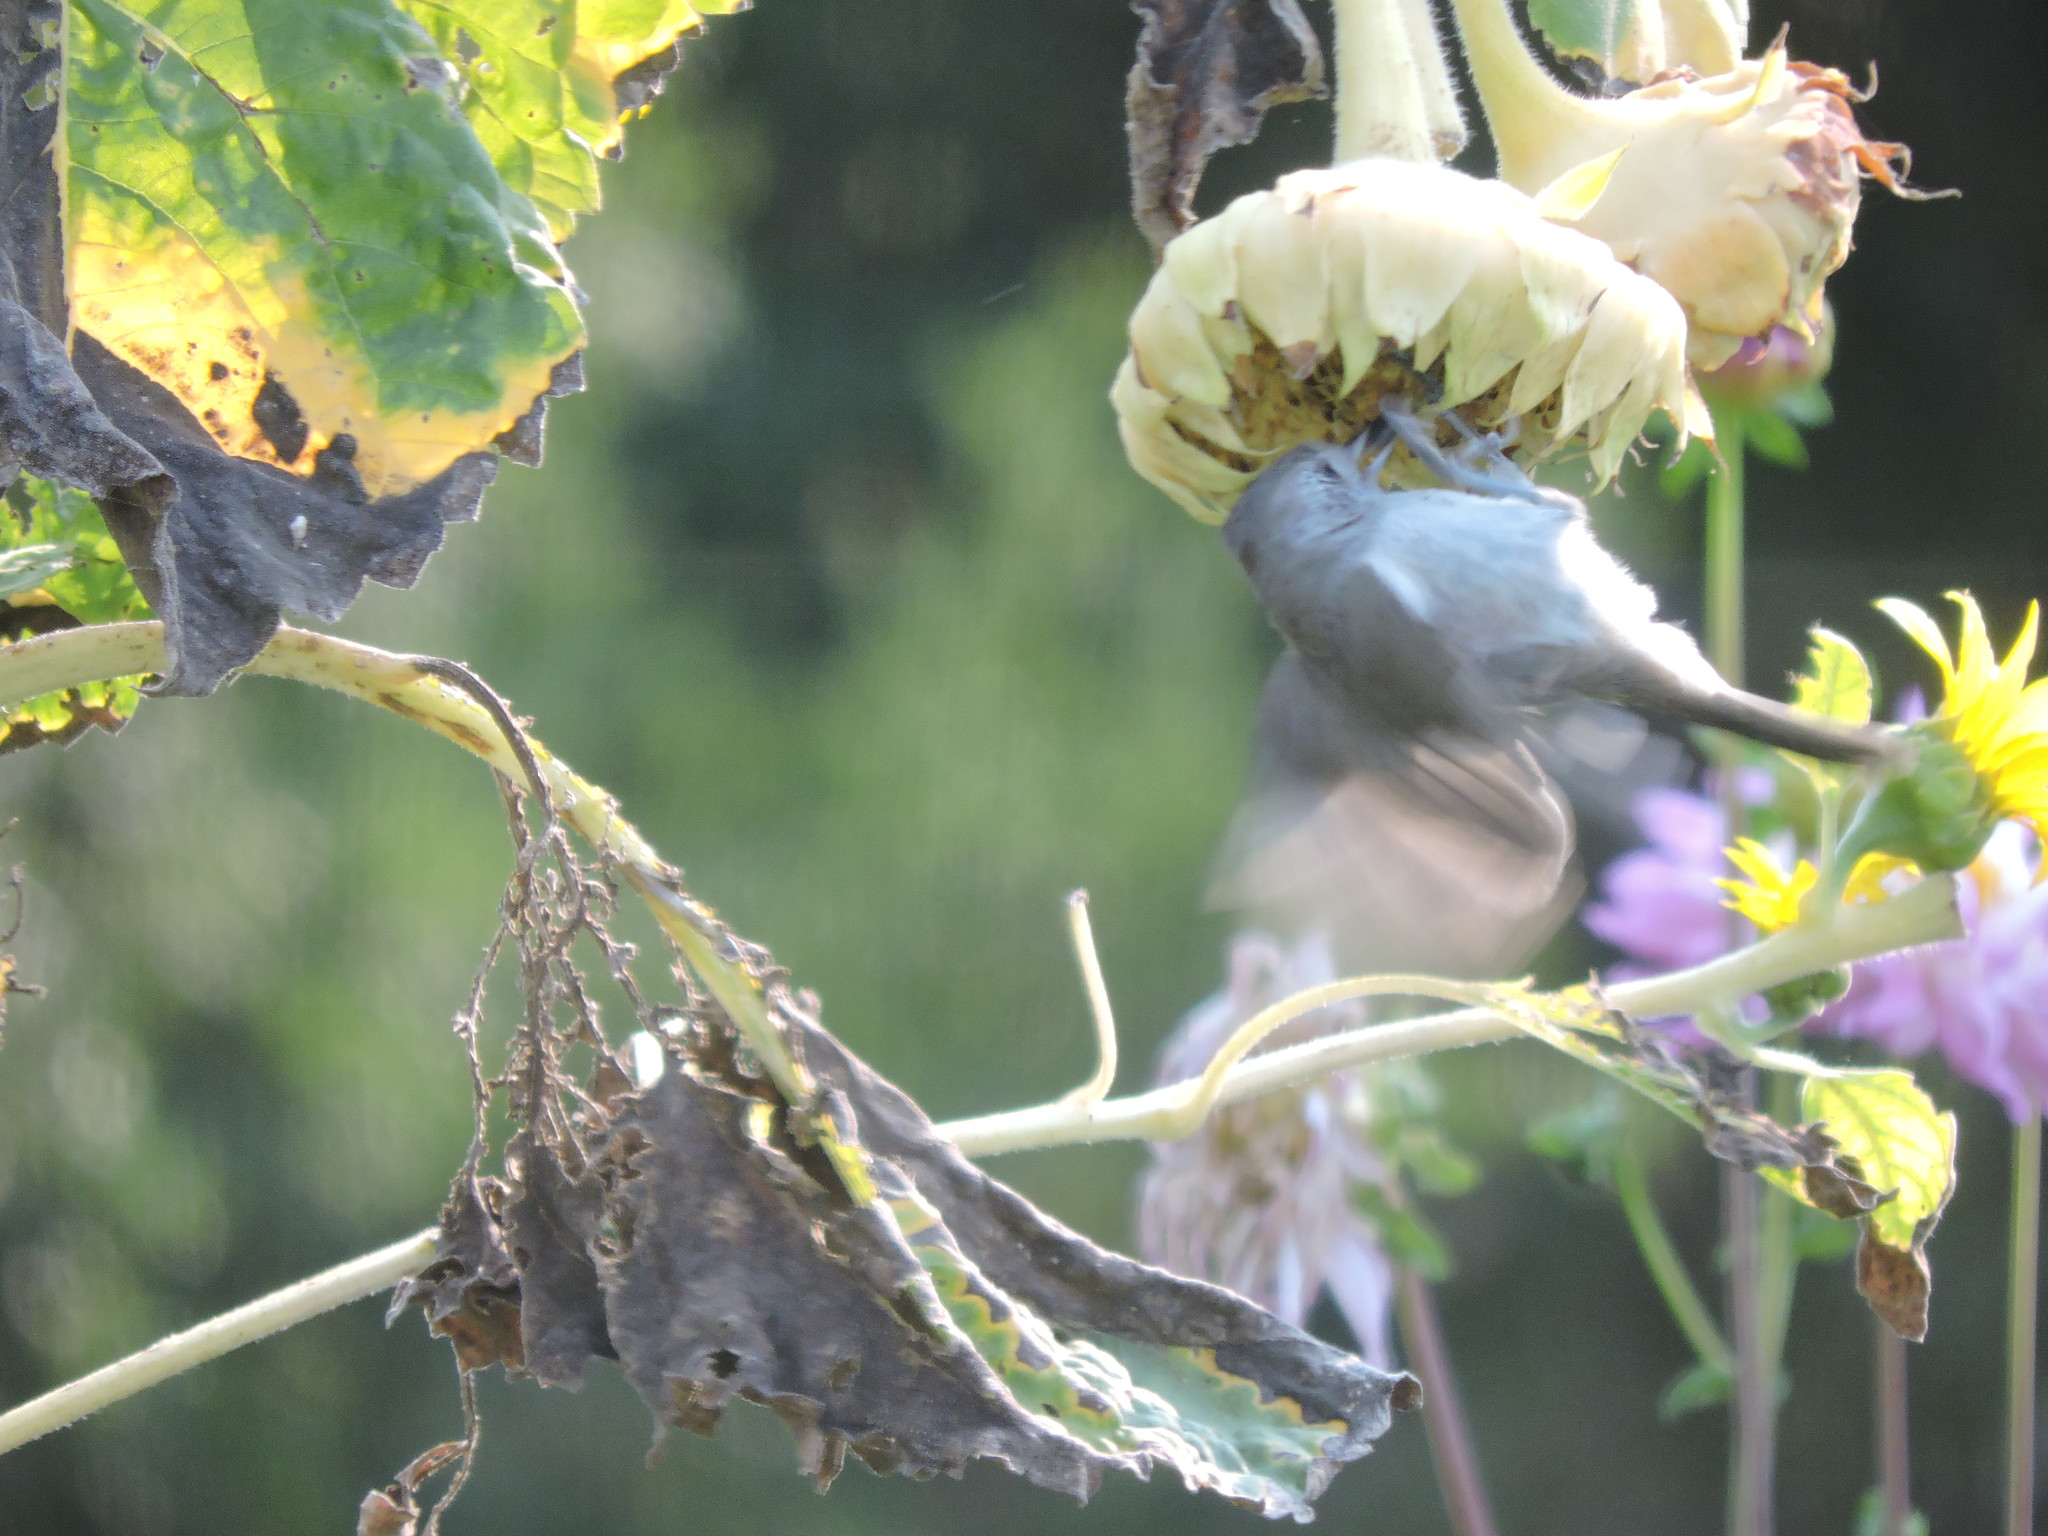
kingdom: Animalia
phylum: Chordata
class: Aves
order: Passeriformes
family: Paridae
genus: Baeolophus
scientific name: Baeolophus inornatus
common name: Oak titmouse
